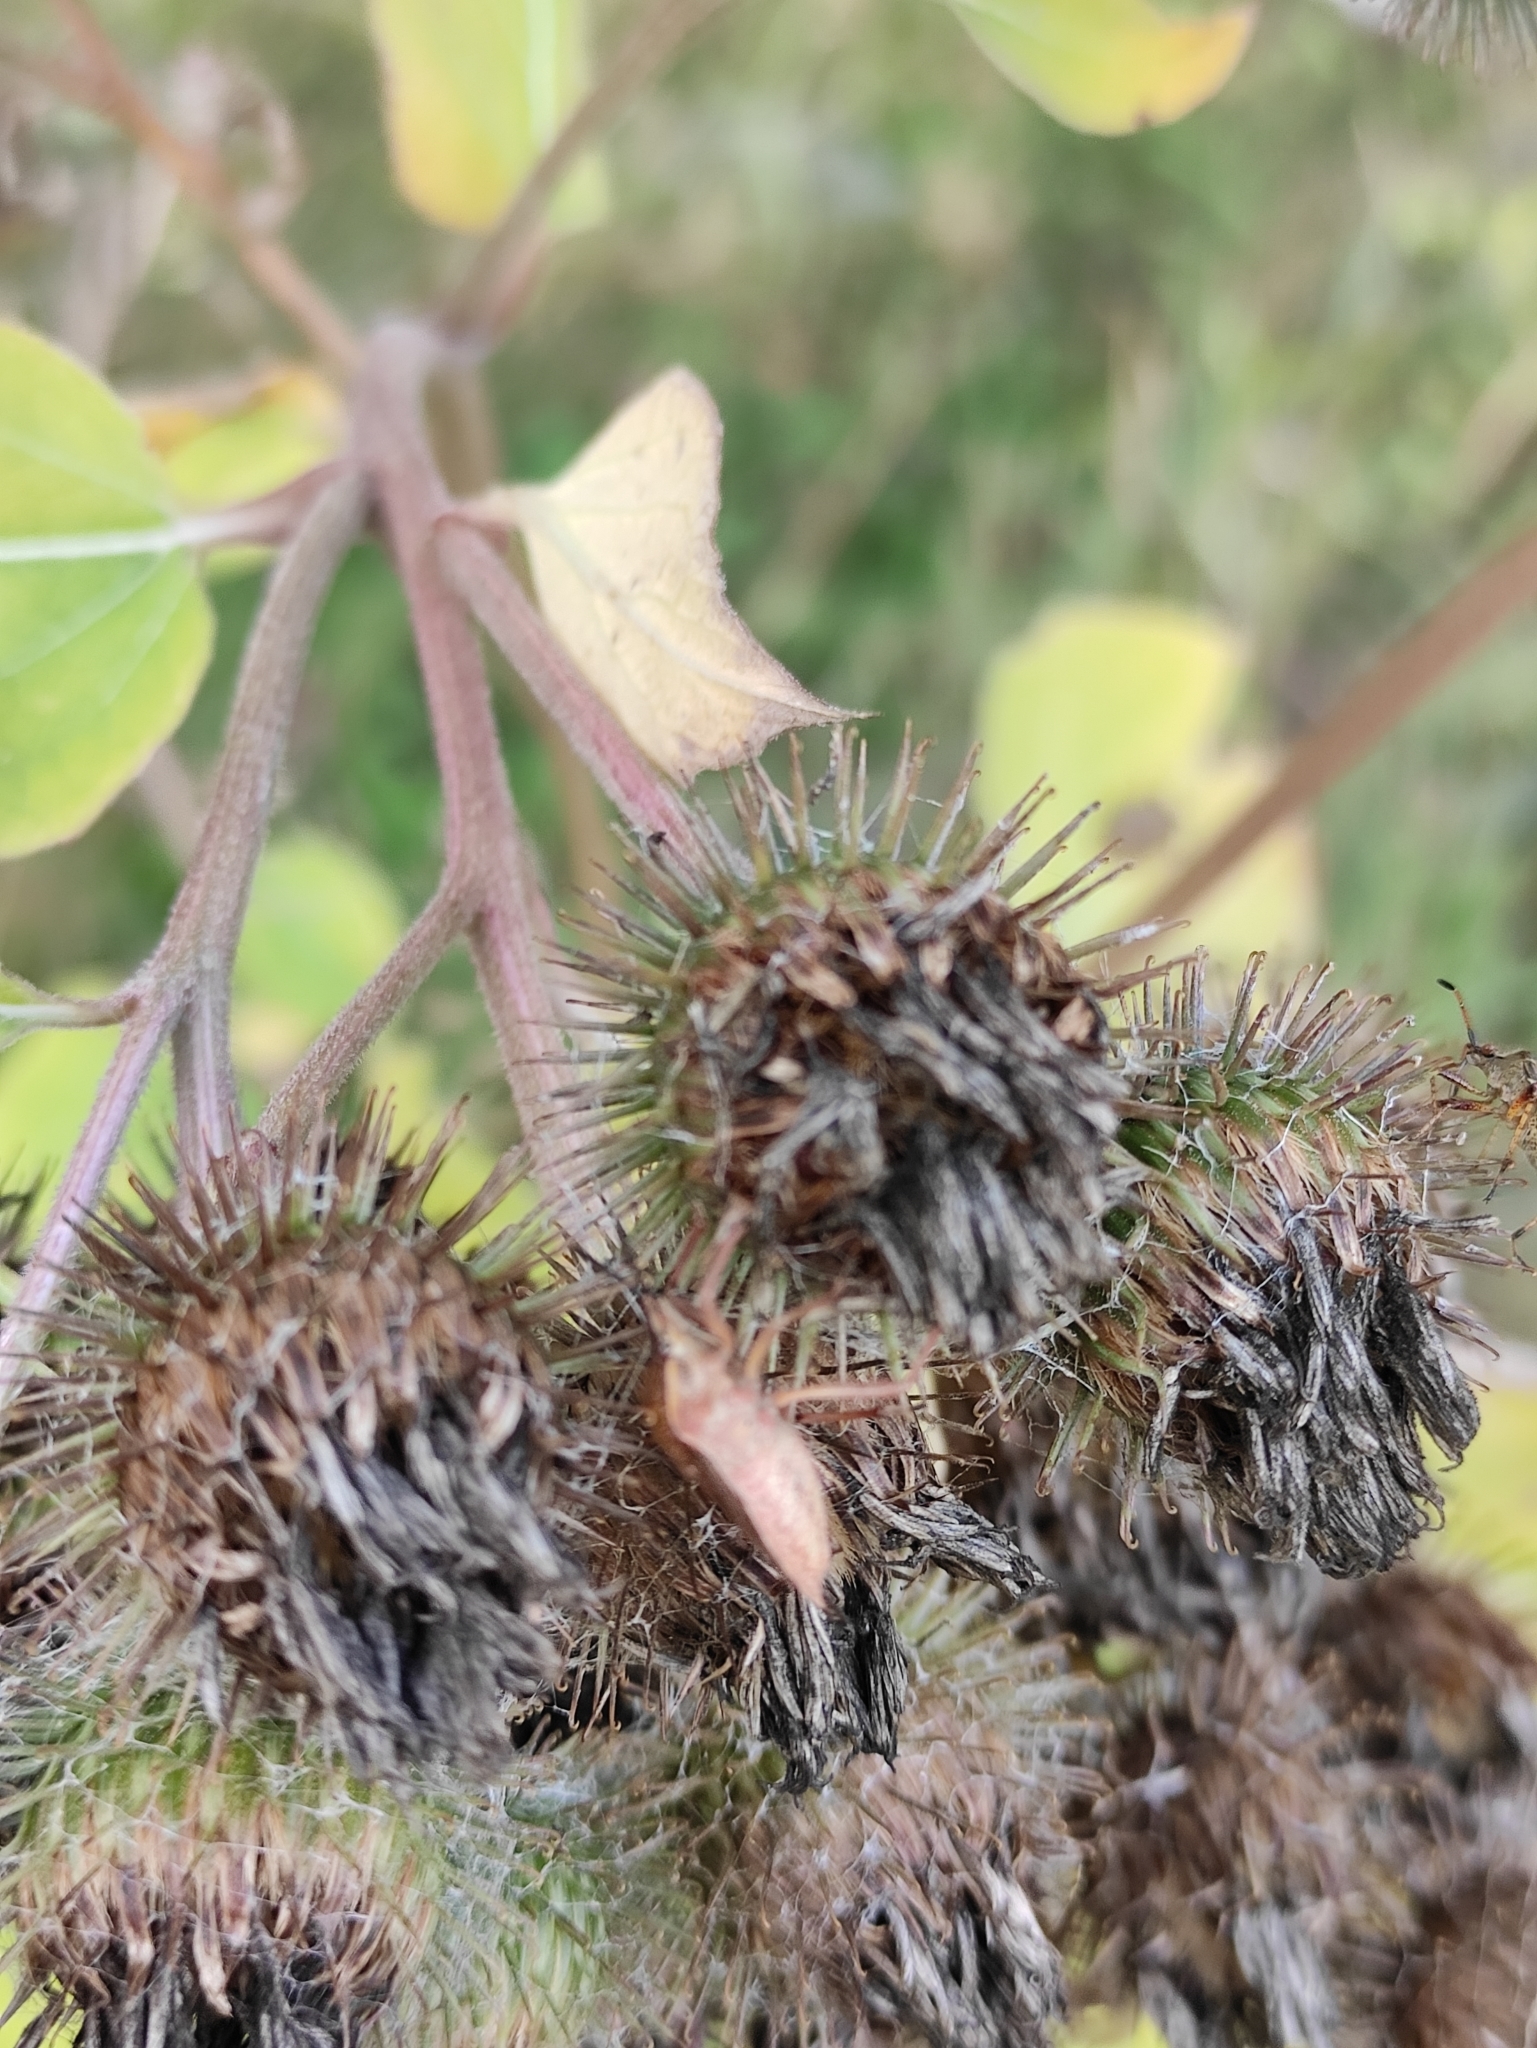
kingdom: Plantae
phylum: Tracheophyta
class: Magnoliopsida
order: Asterales
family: Asteraceae
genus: Arctium
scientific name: Arctium tomentosum
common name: Woolly burdock
